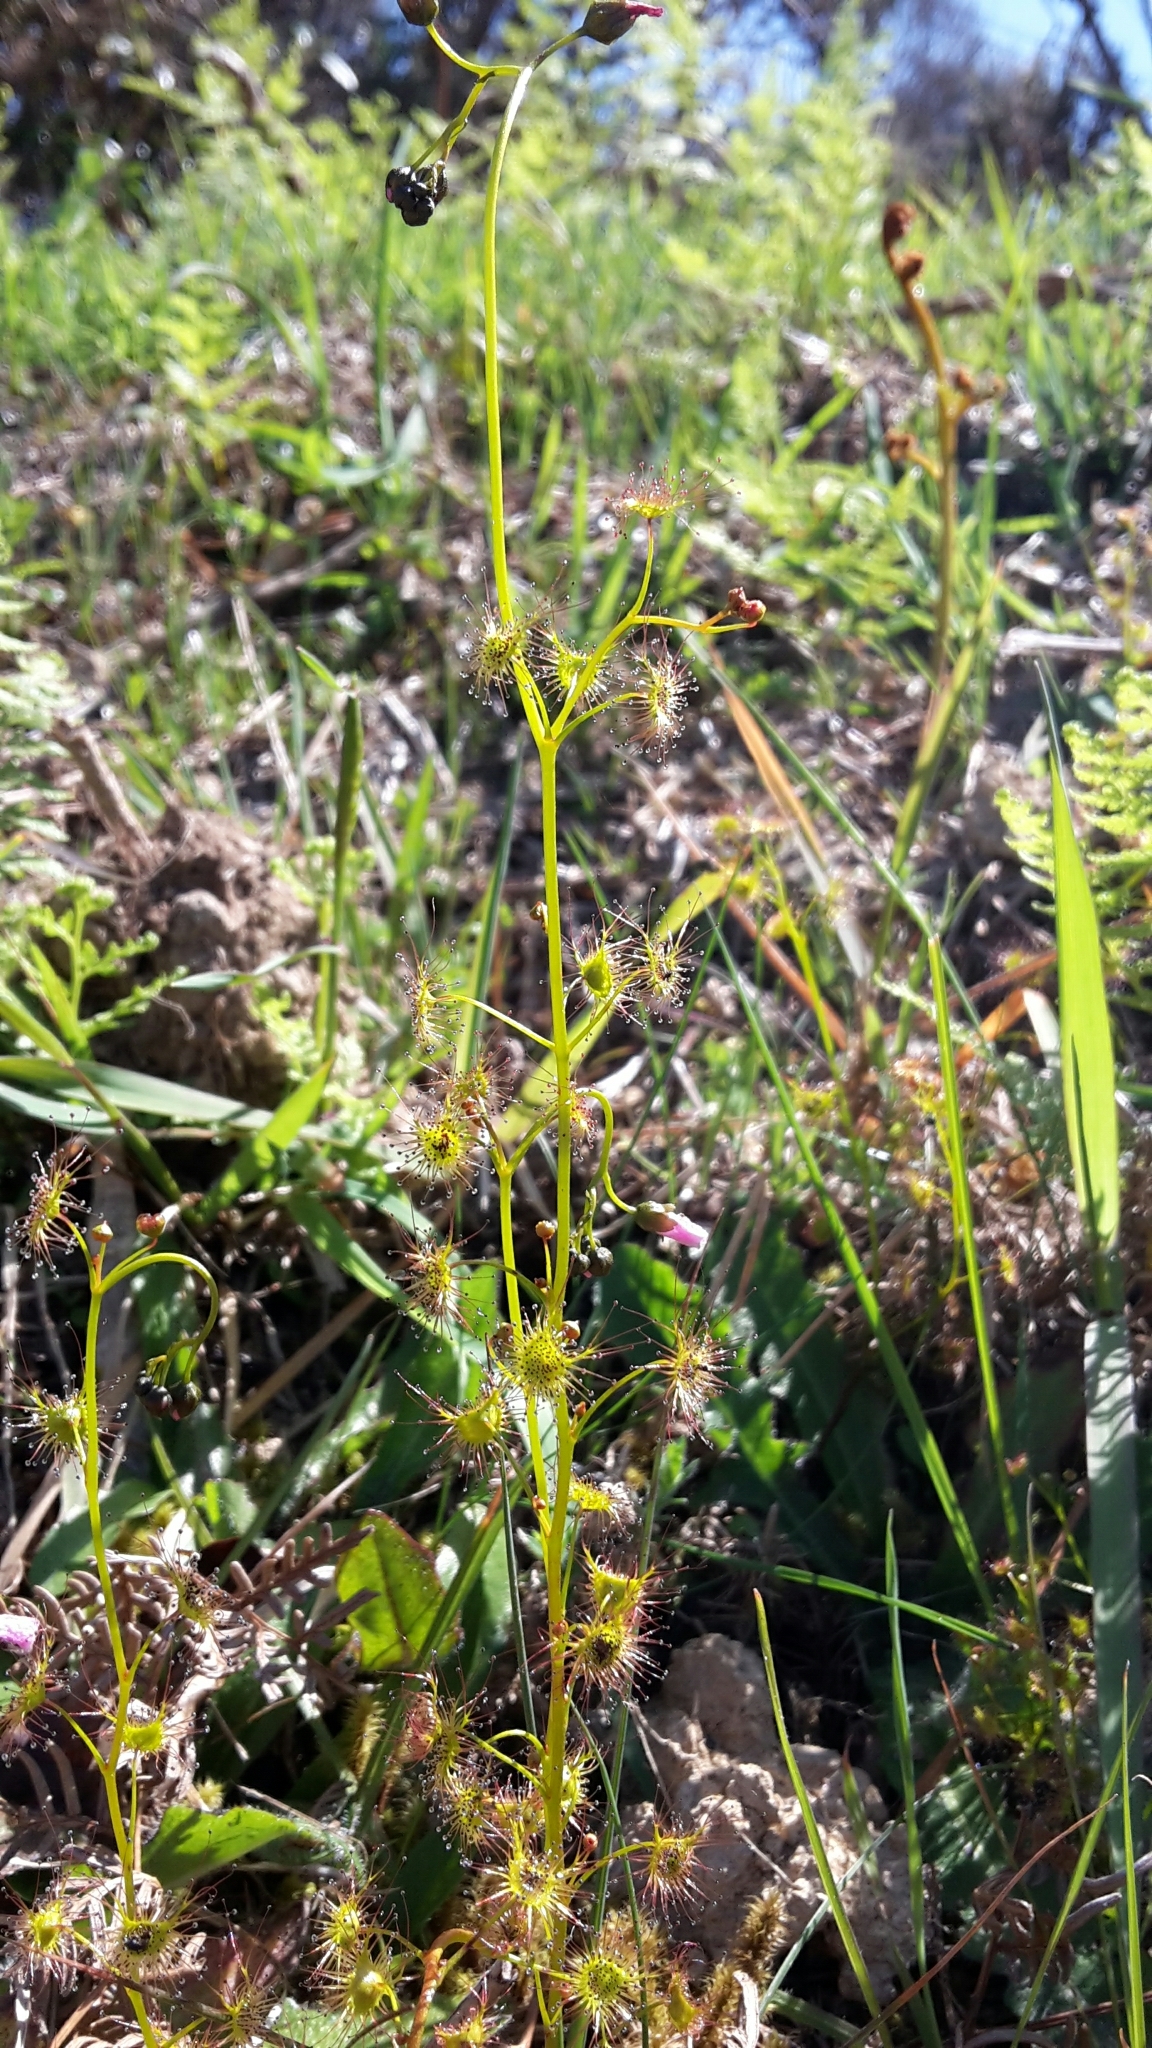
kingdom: Plantae
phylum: Tracheophyta
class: Magnoliopsida
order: Caryophyllales
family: Droseraceae
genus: Drosera
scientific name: Drosera peltata
